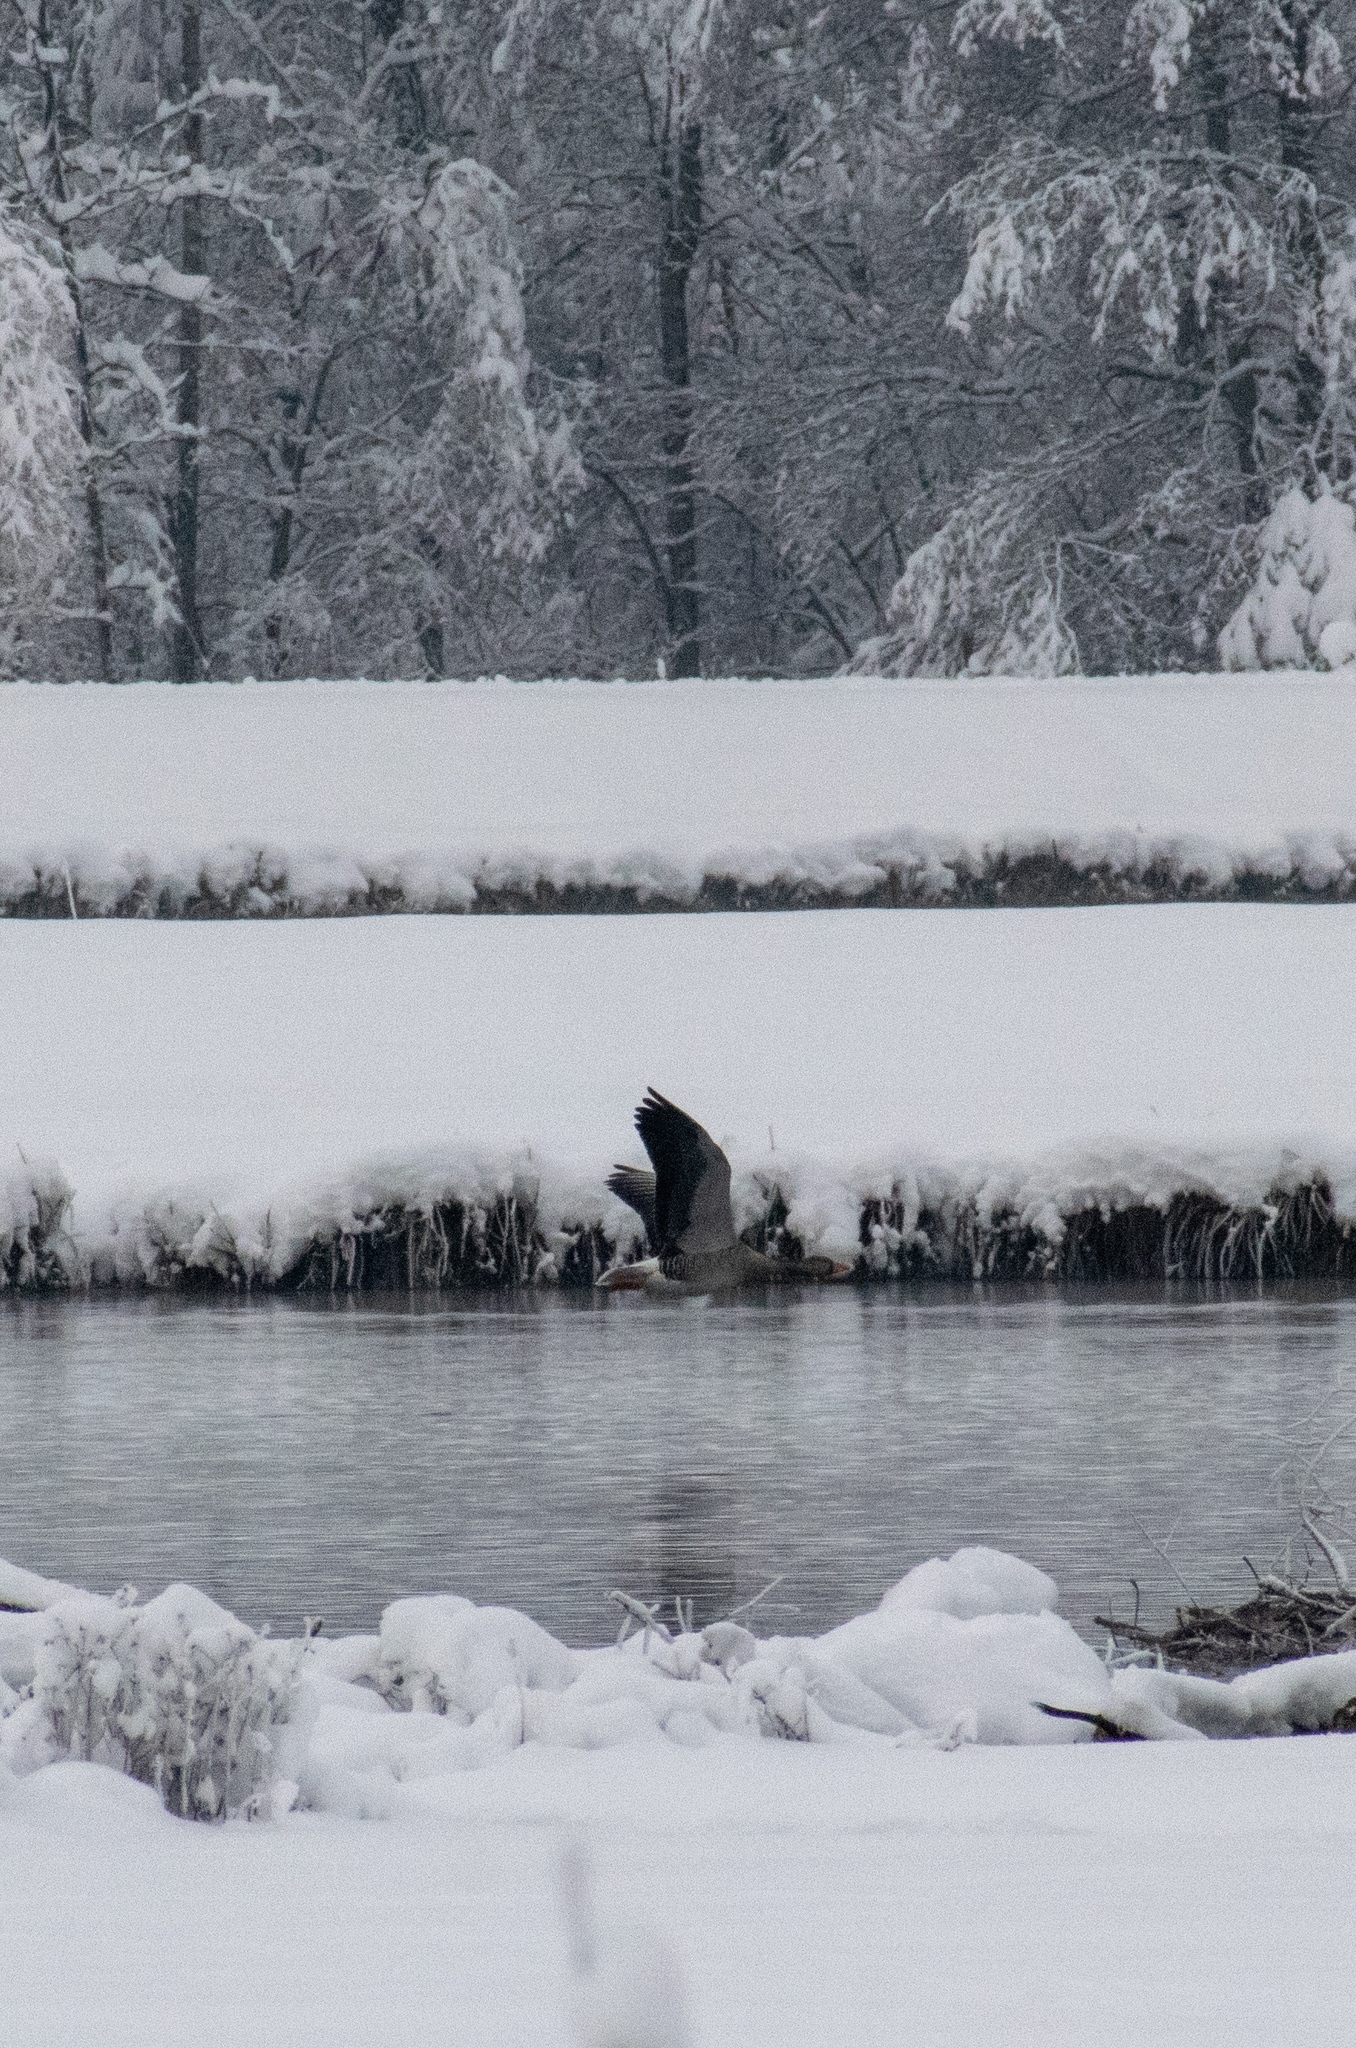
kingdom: Animalia
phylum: Chordata
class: Aves
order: Anseriformes
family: Anatidae
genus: Anser
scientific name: Anser anser
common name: Greylag goose
